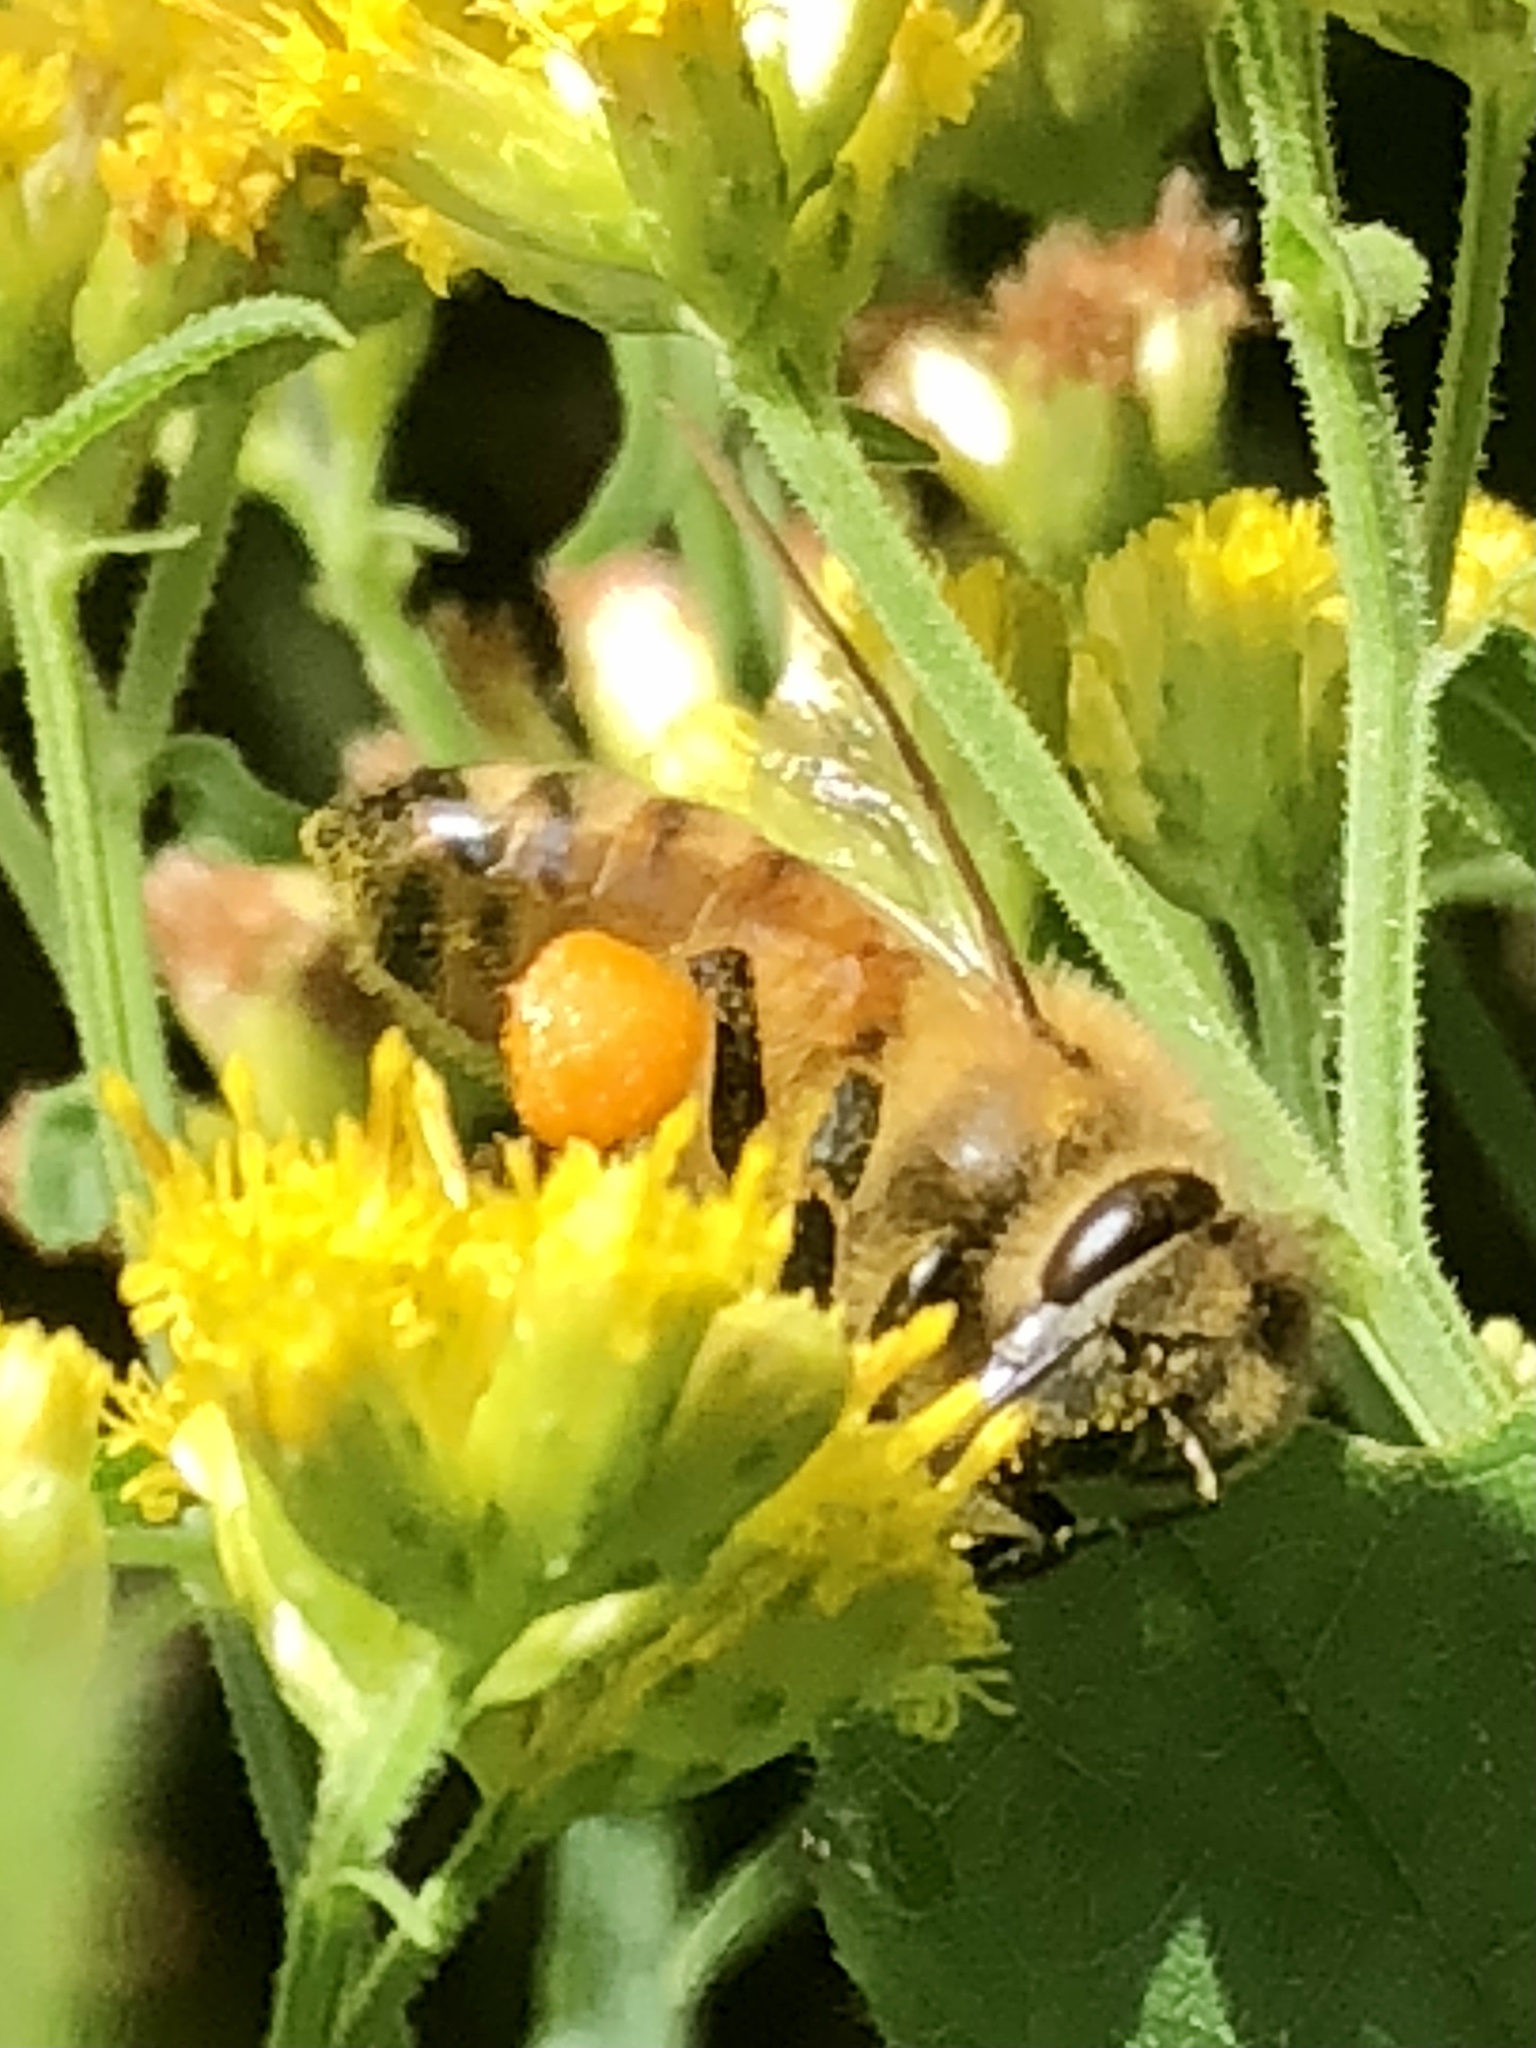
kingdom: Animalia
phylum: Arthropoda
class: Insecta
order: Hymenoptera
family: Apidae
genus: Apis
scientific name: Apis mellifera
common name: Honey bee
